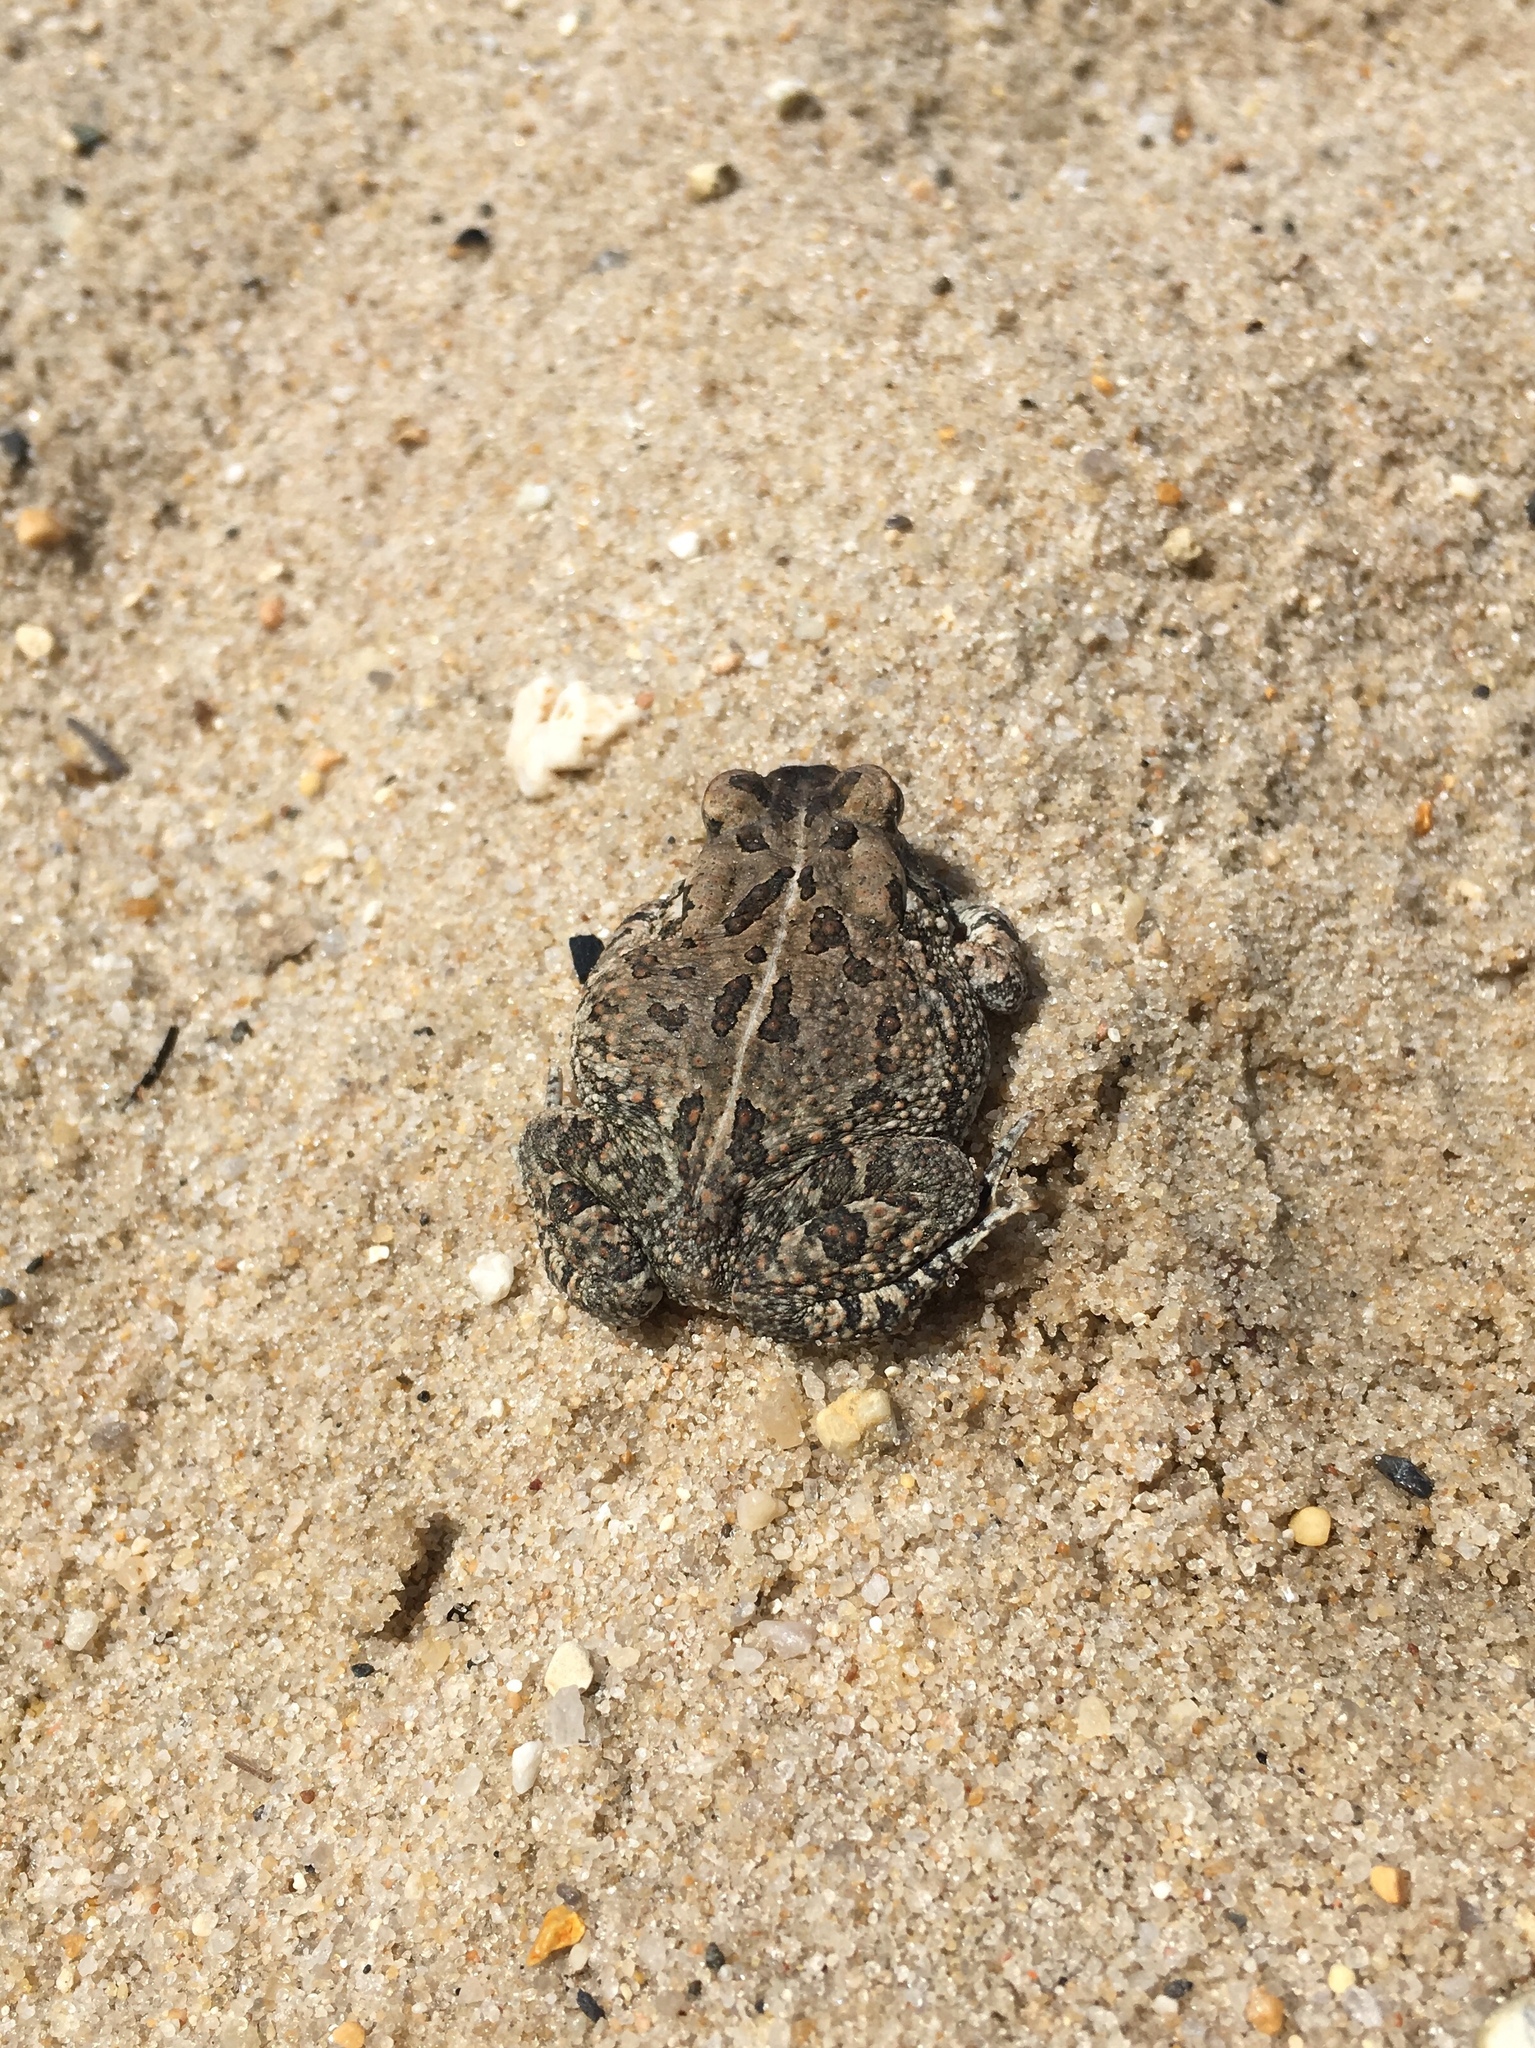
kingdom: Animalia
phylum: Chordata
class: Amphibia
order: Anura
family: Bufonidae
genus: Anaxyrus
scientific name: Anaxyrus fowleri
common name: Fowler's toad
